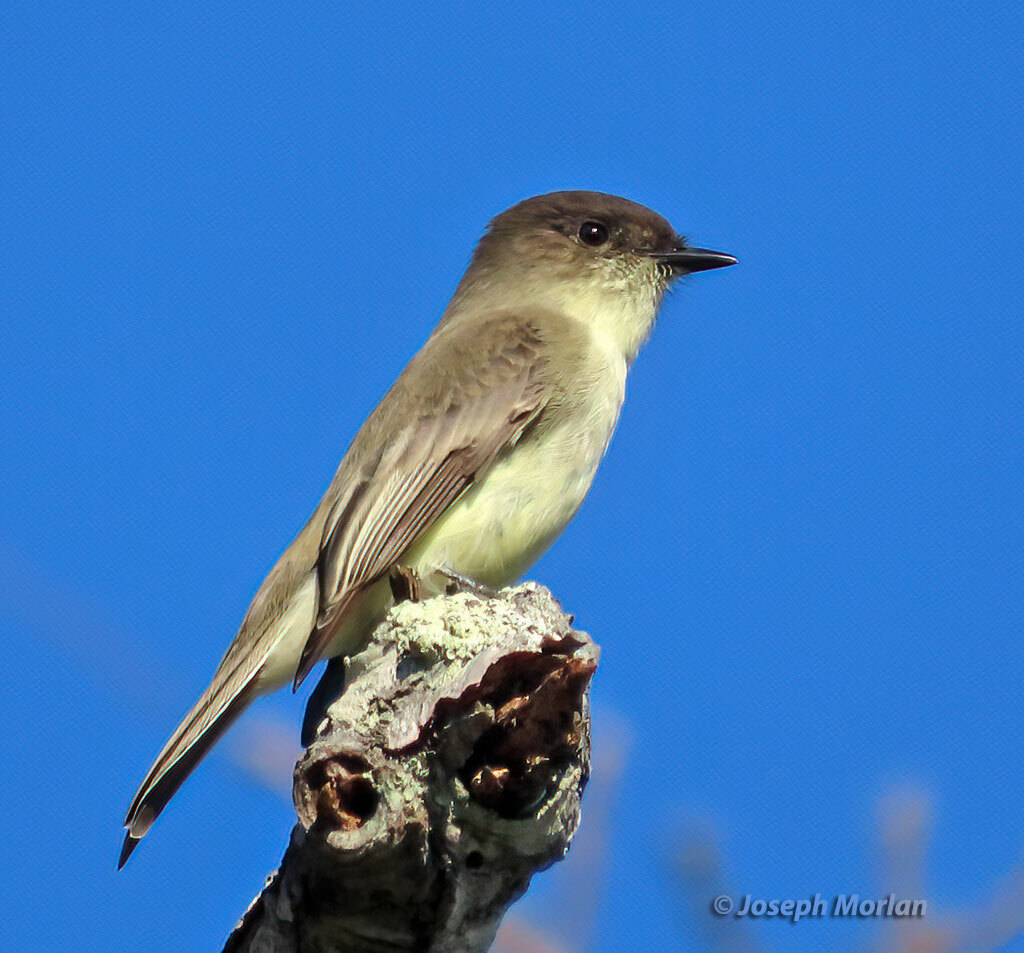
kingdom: Animalia
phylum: Chordata
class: Aves
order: Passeriformes
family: Tyrannidae
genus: Sayornis
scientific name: Sayornis phoebe
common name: Eastern phoebe
